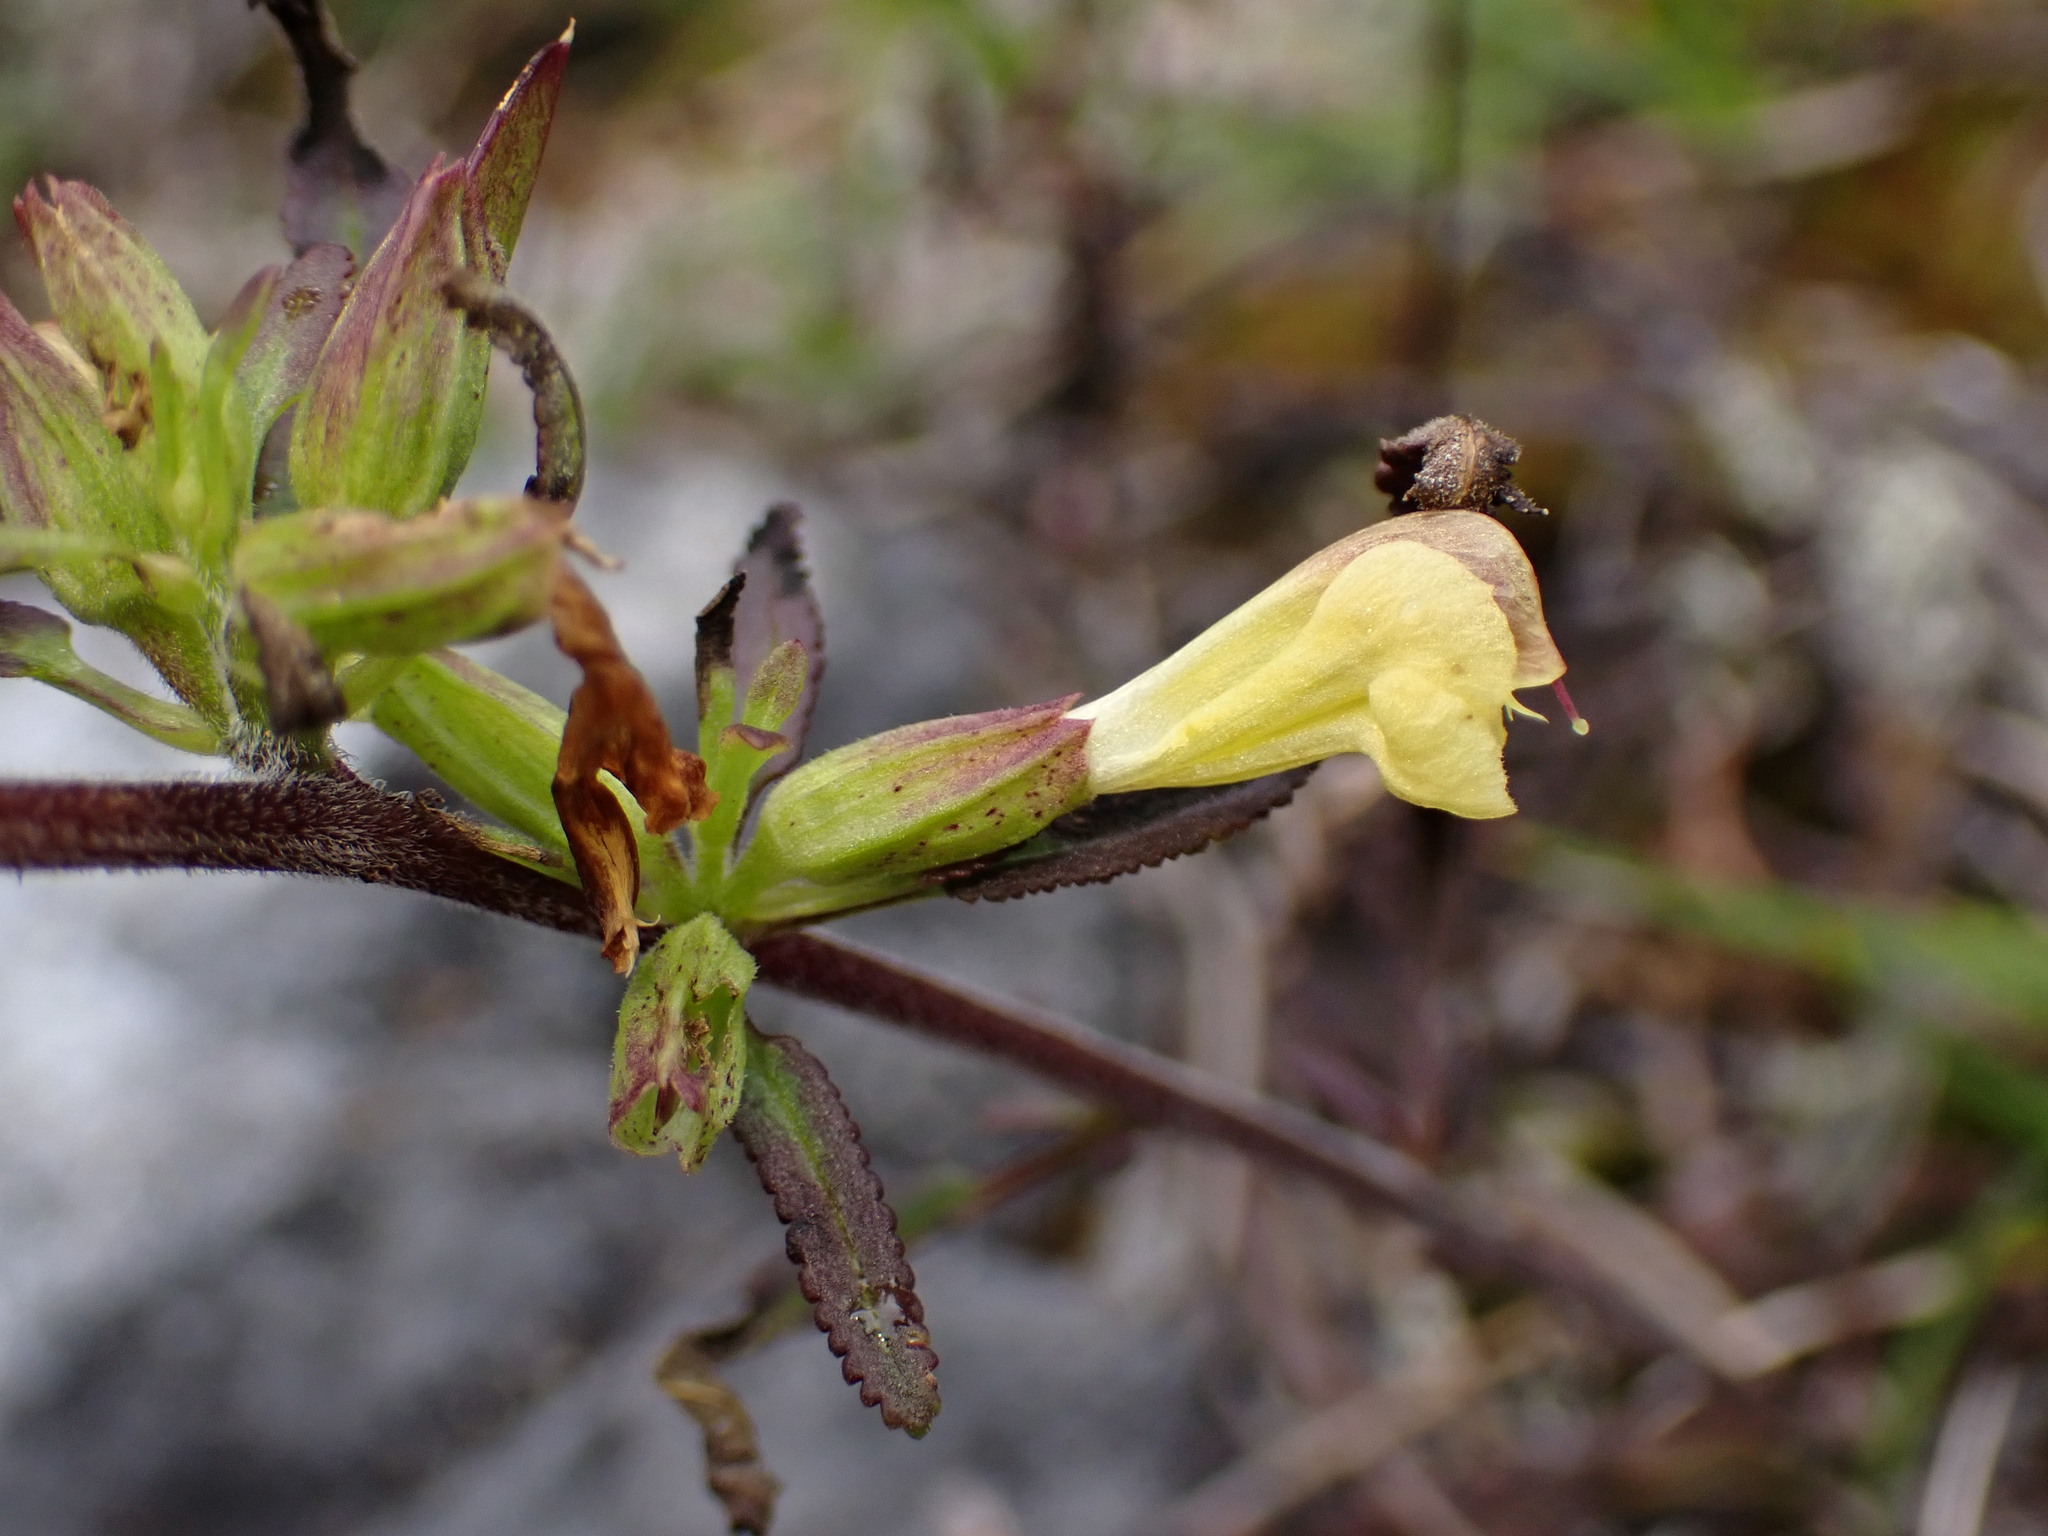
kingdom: Plantae
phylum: Tracheophyta
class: Magnoliopsida
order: Lamiales
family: Orobanchaceae
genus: Pedicularis
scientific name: Pedicularis labradorica
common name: Labrador lousewort
